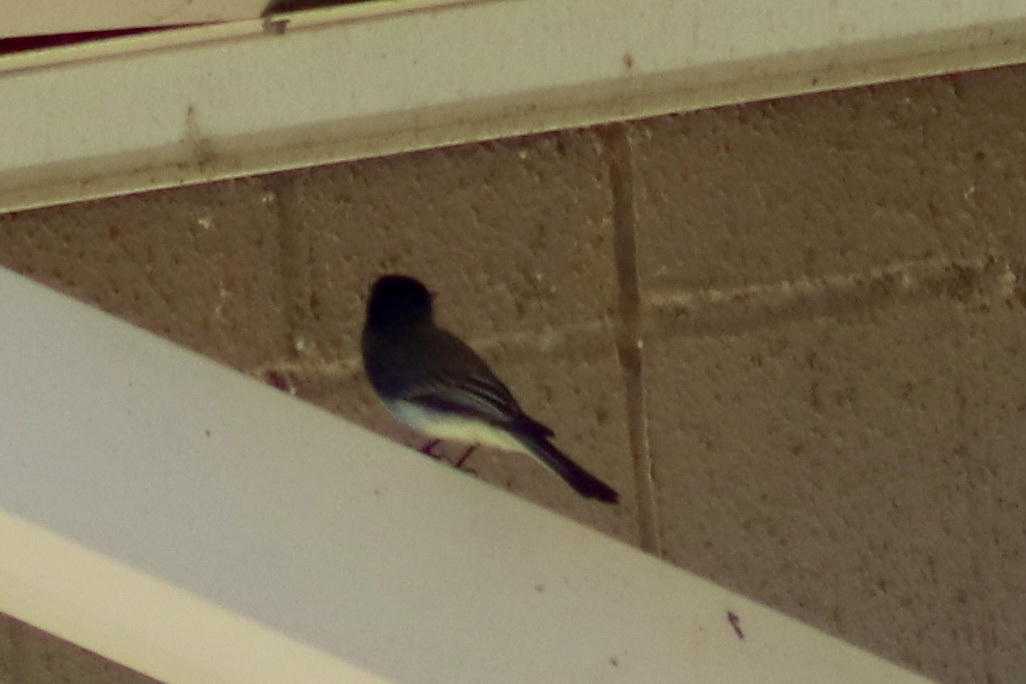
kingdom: Animalia
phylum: Chordata
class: Aves
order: Passeriformes
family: Tyrannidae
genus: Sayornis
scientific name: Sayornis phoebe
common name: Eastern phoebe
